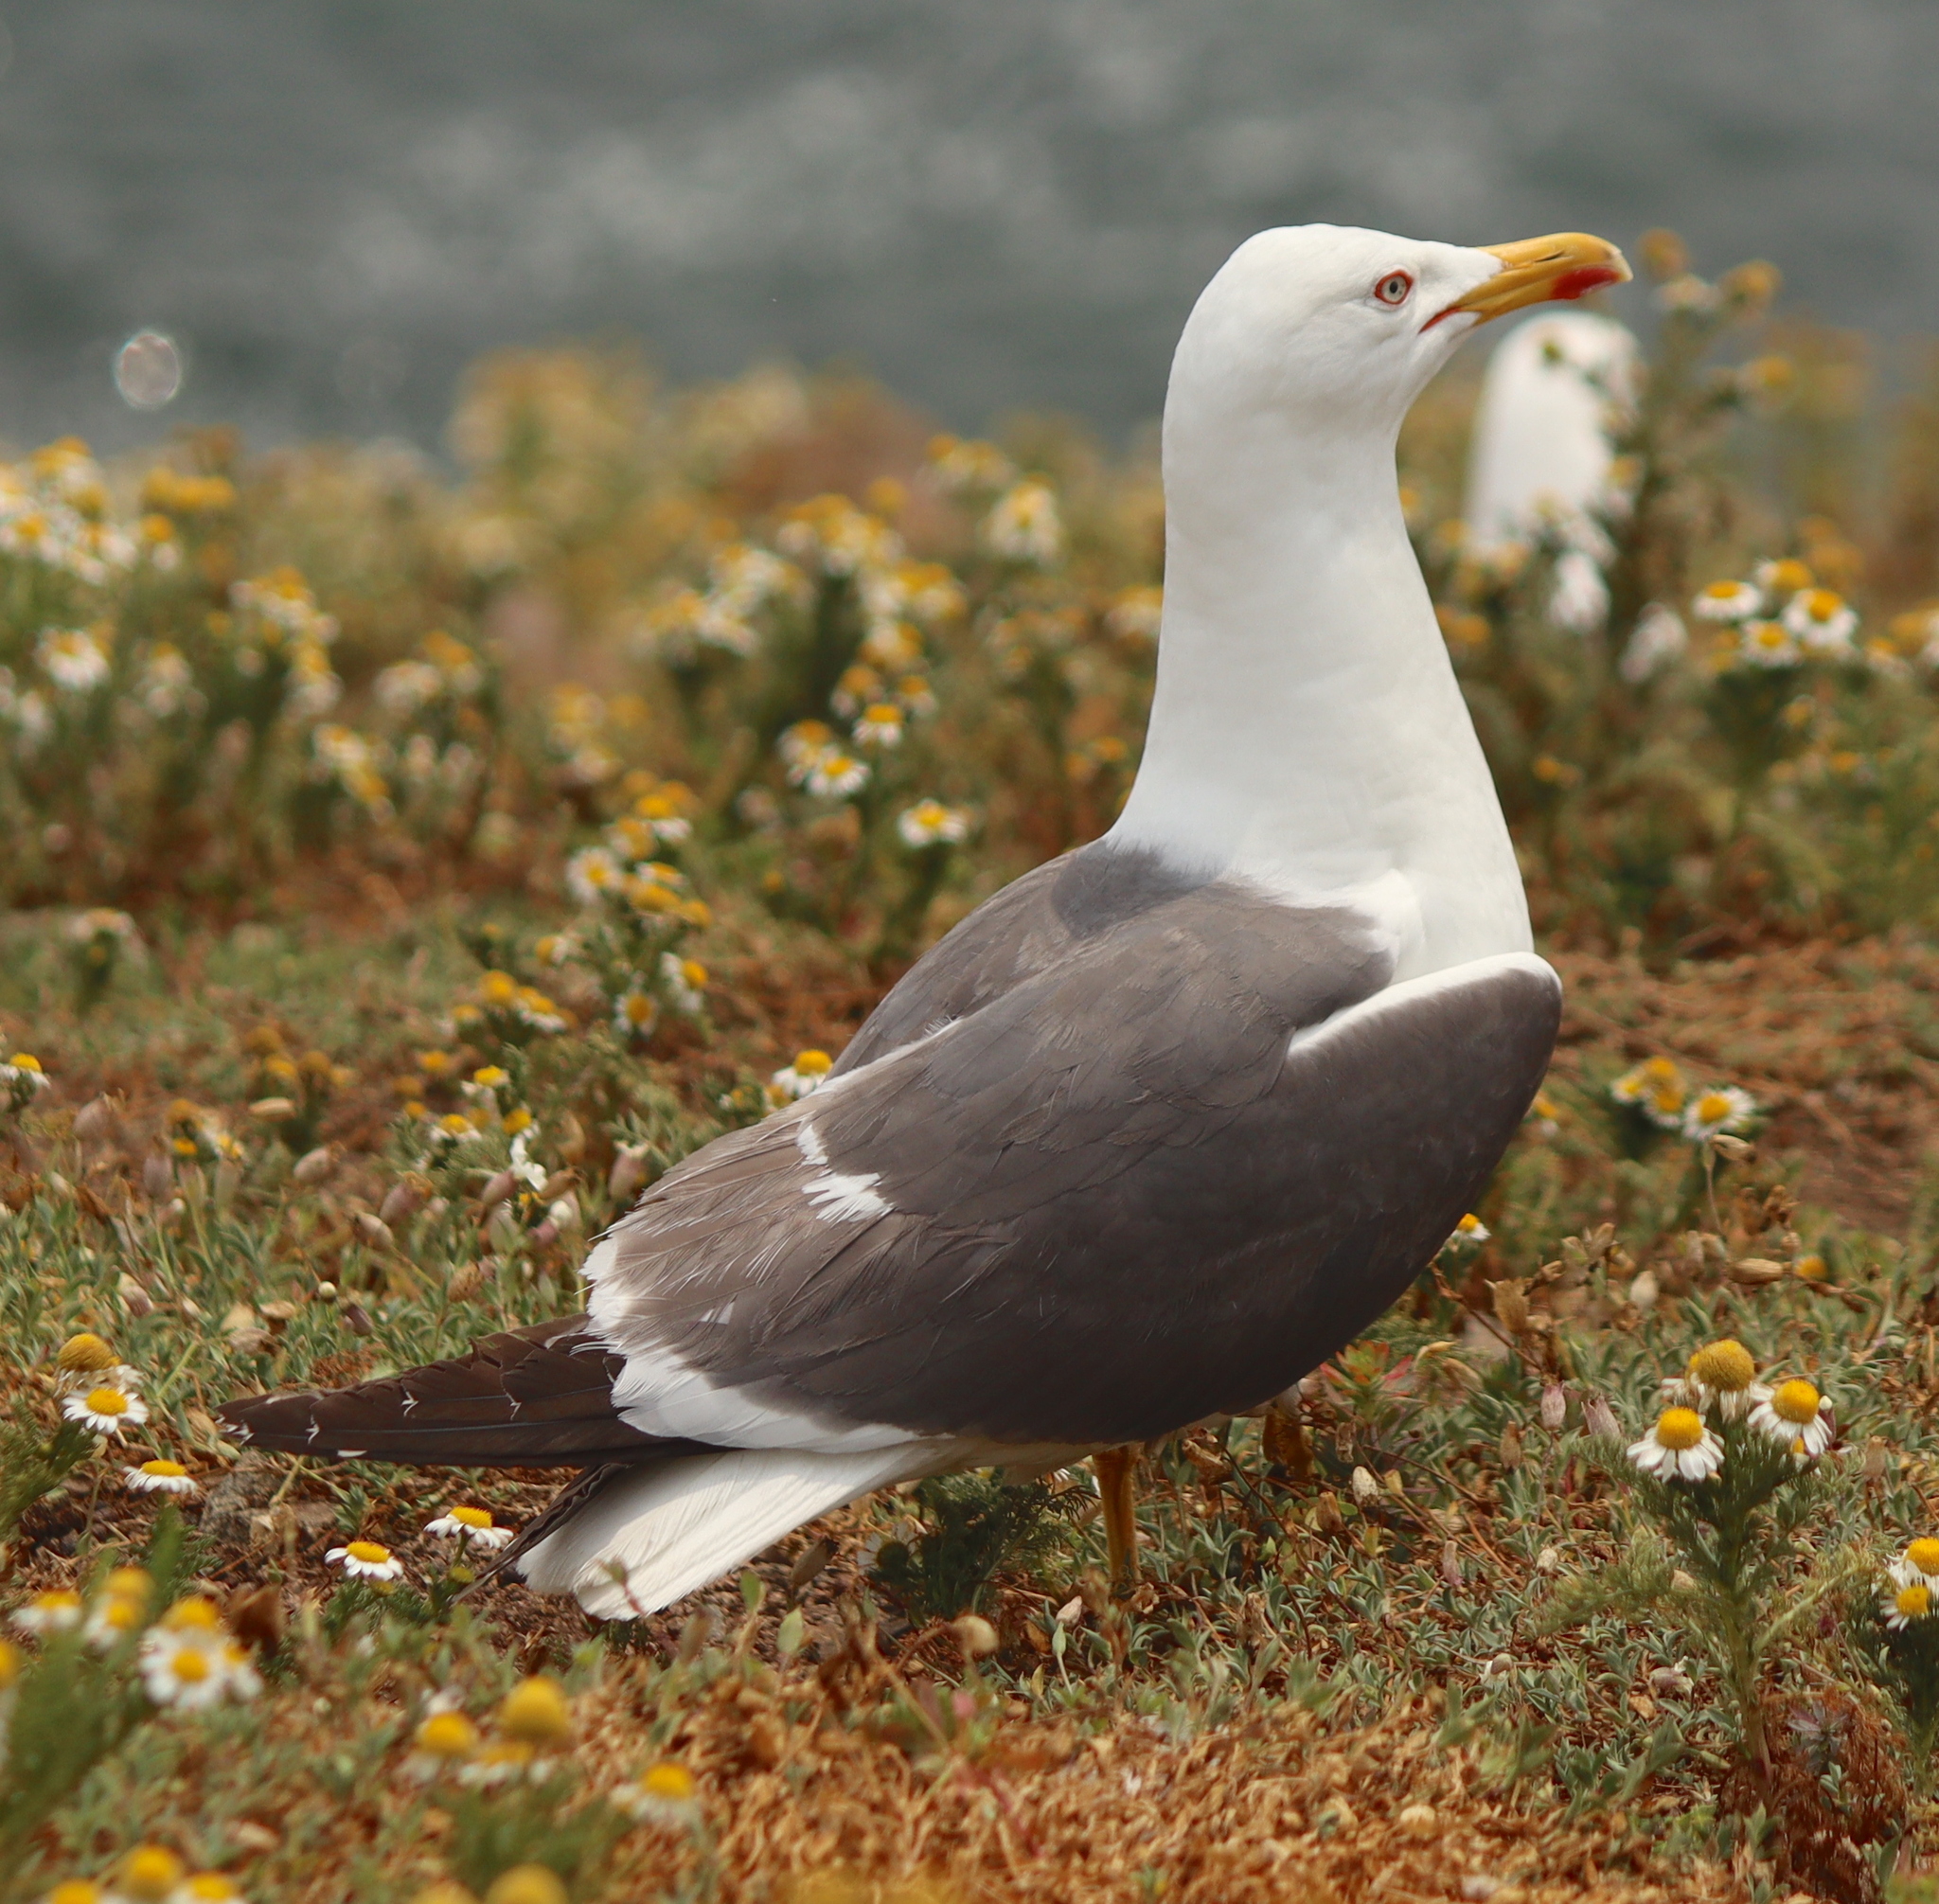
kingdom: Animalia
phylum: Chordata
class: Aves
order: Charadriiformes
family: Laridae
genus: Larus
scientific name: Larus fuscus
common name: Lesser black-backed gull
